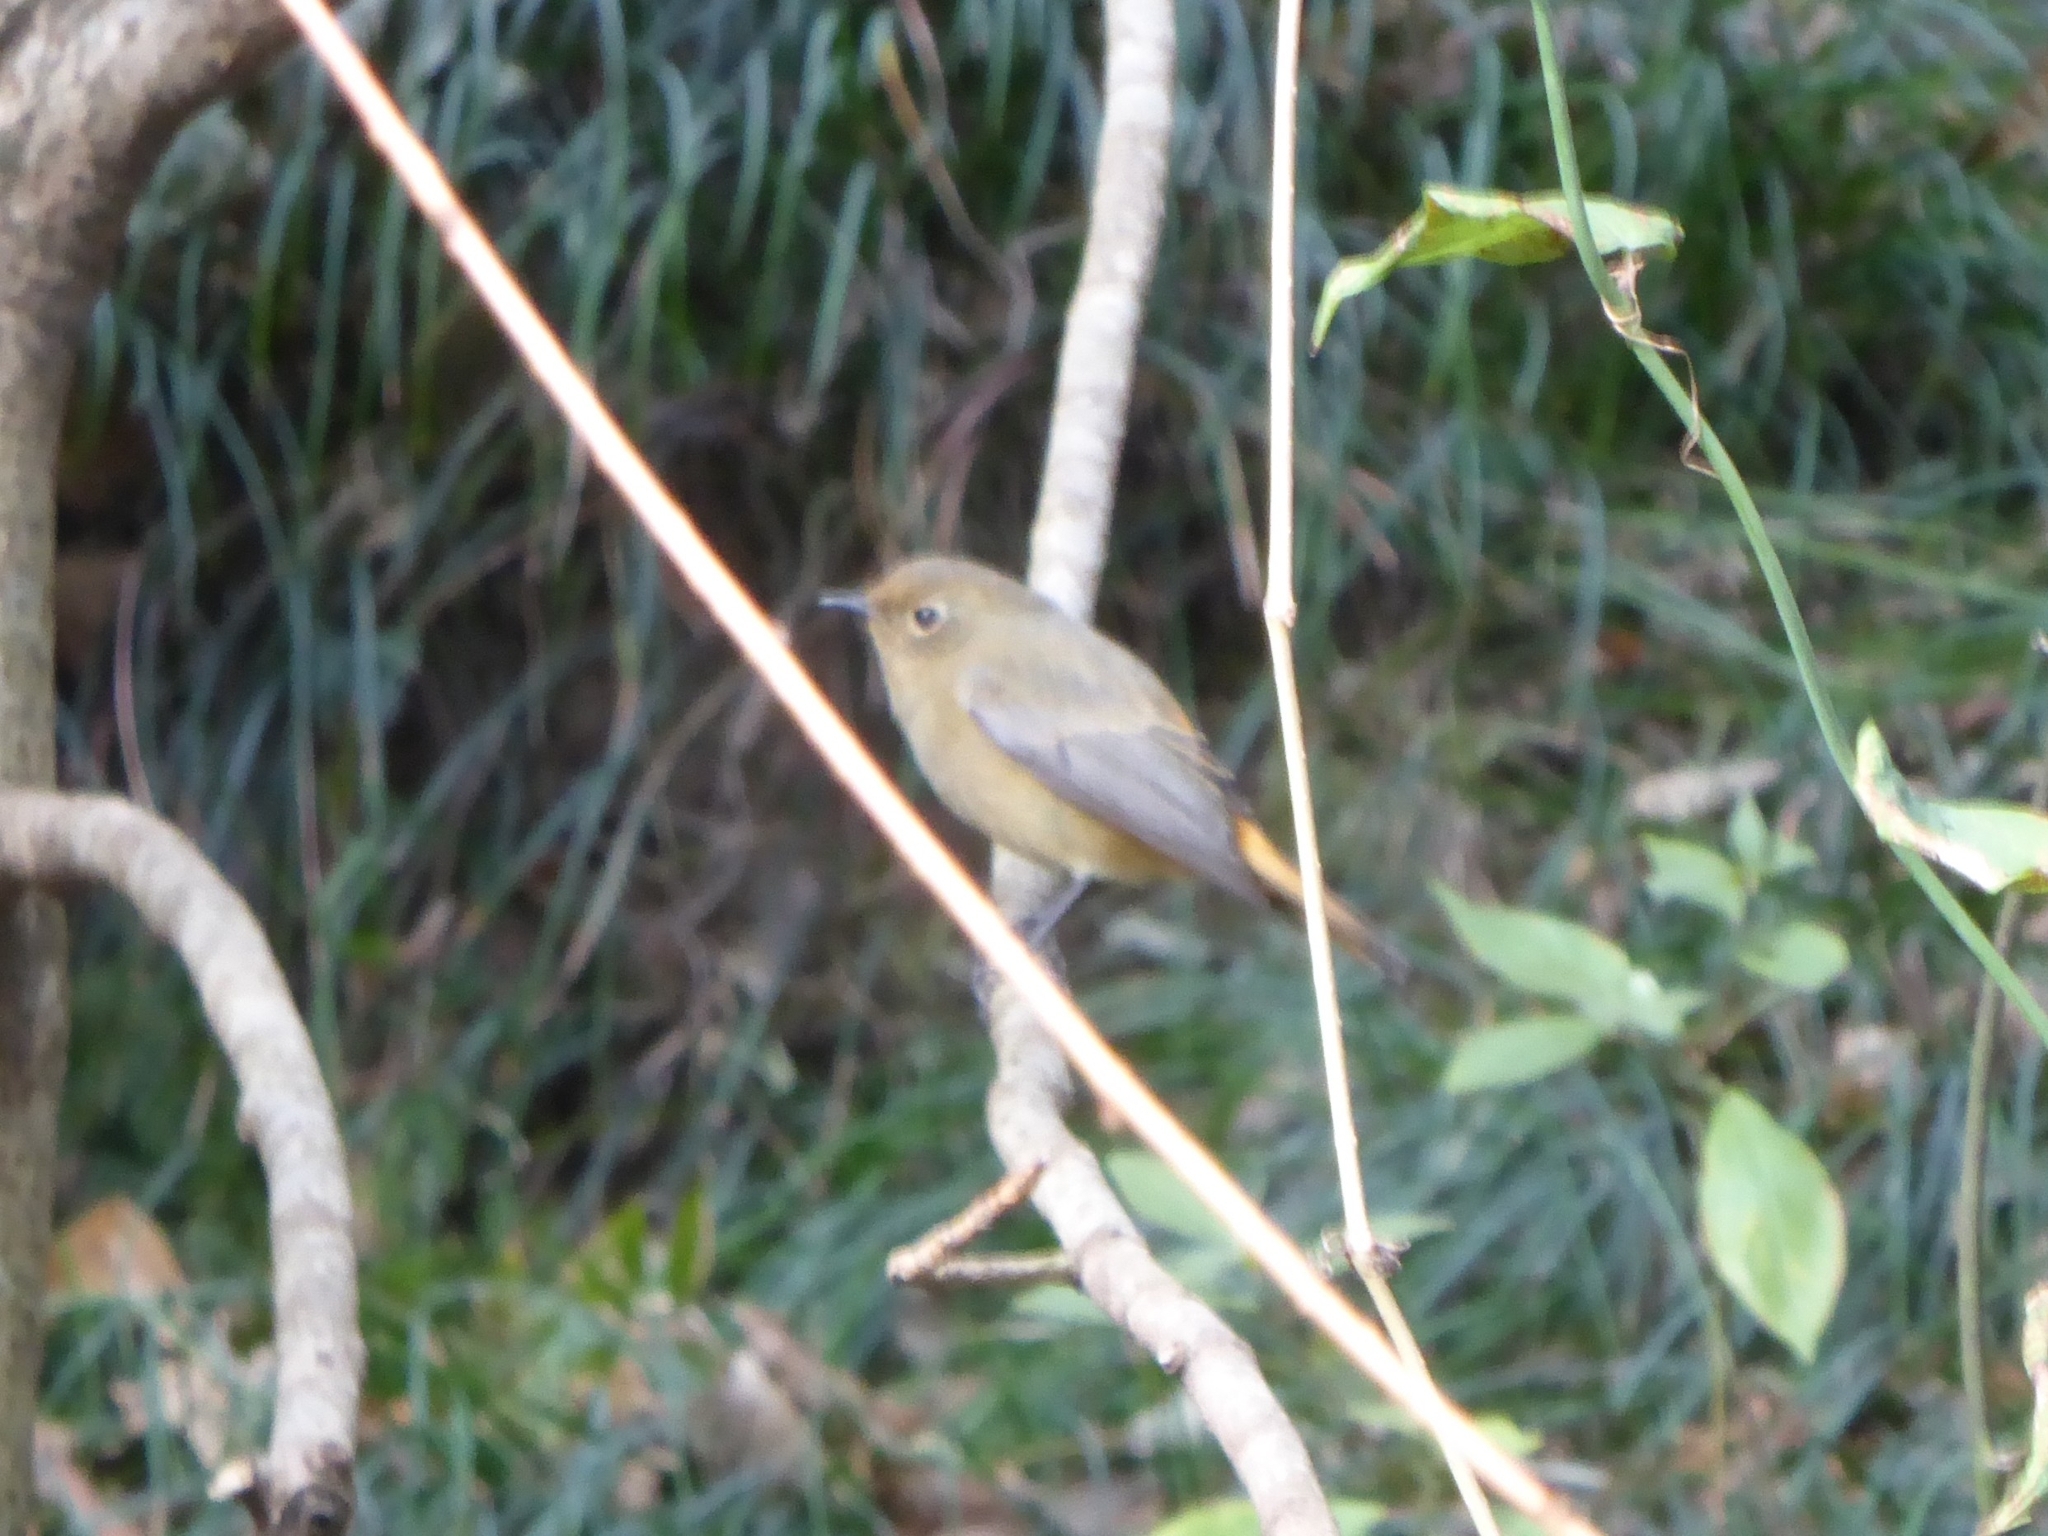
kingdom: Animalia
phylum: Chordata
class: Aves
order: Passeriformes
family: Muscicapidae
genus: Phoenicurus
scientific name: Phoenicurus frontalis
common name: Blue-fronted redstart
